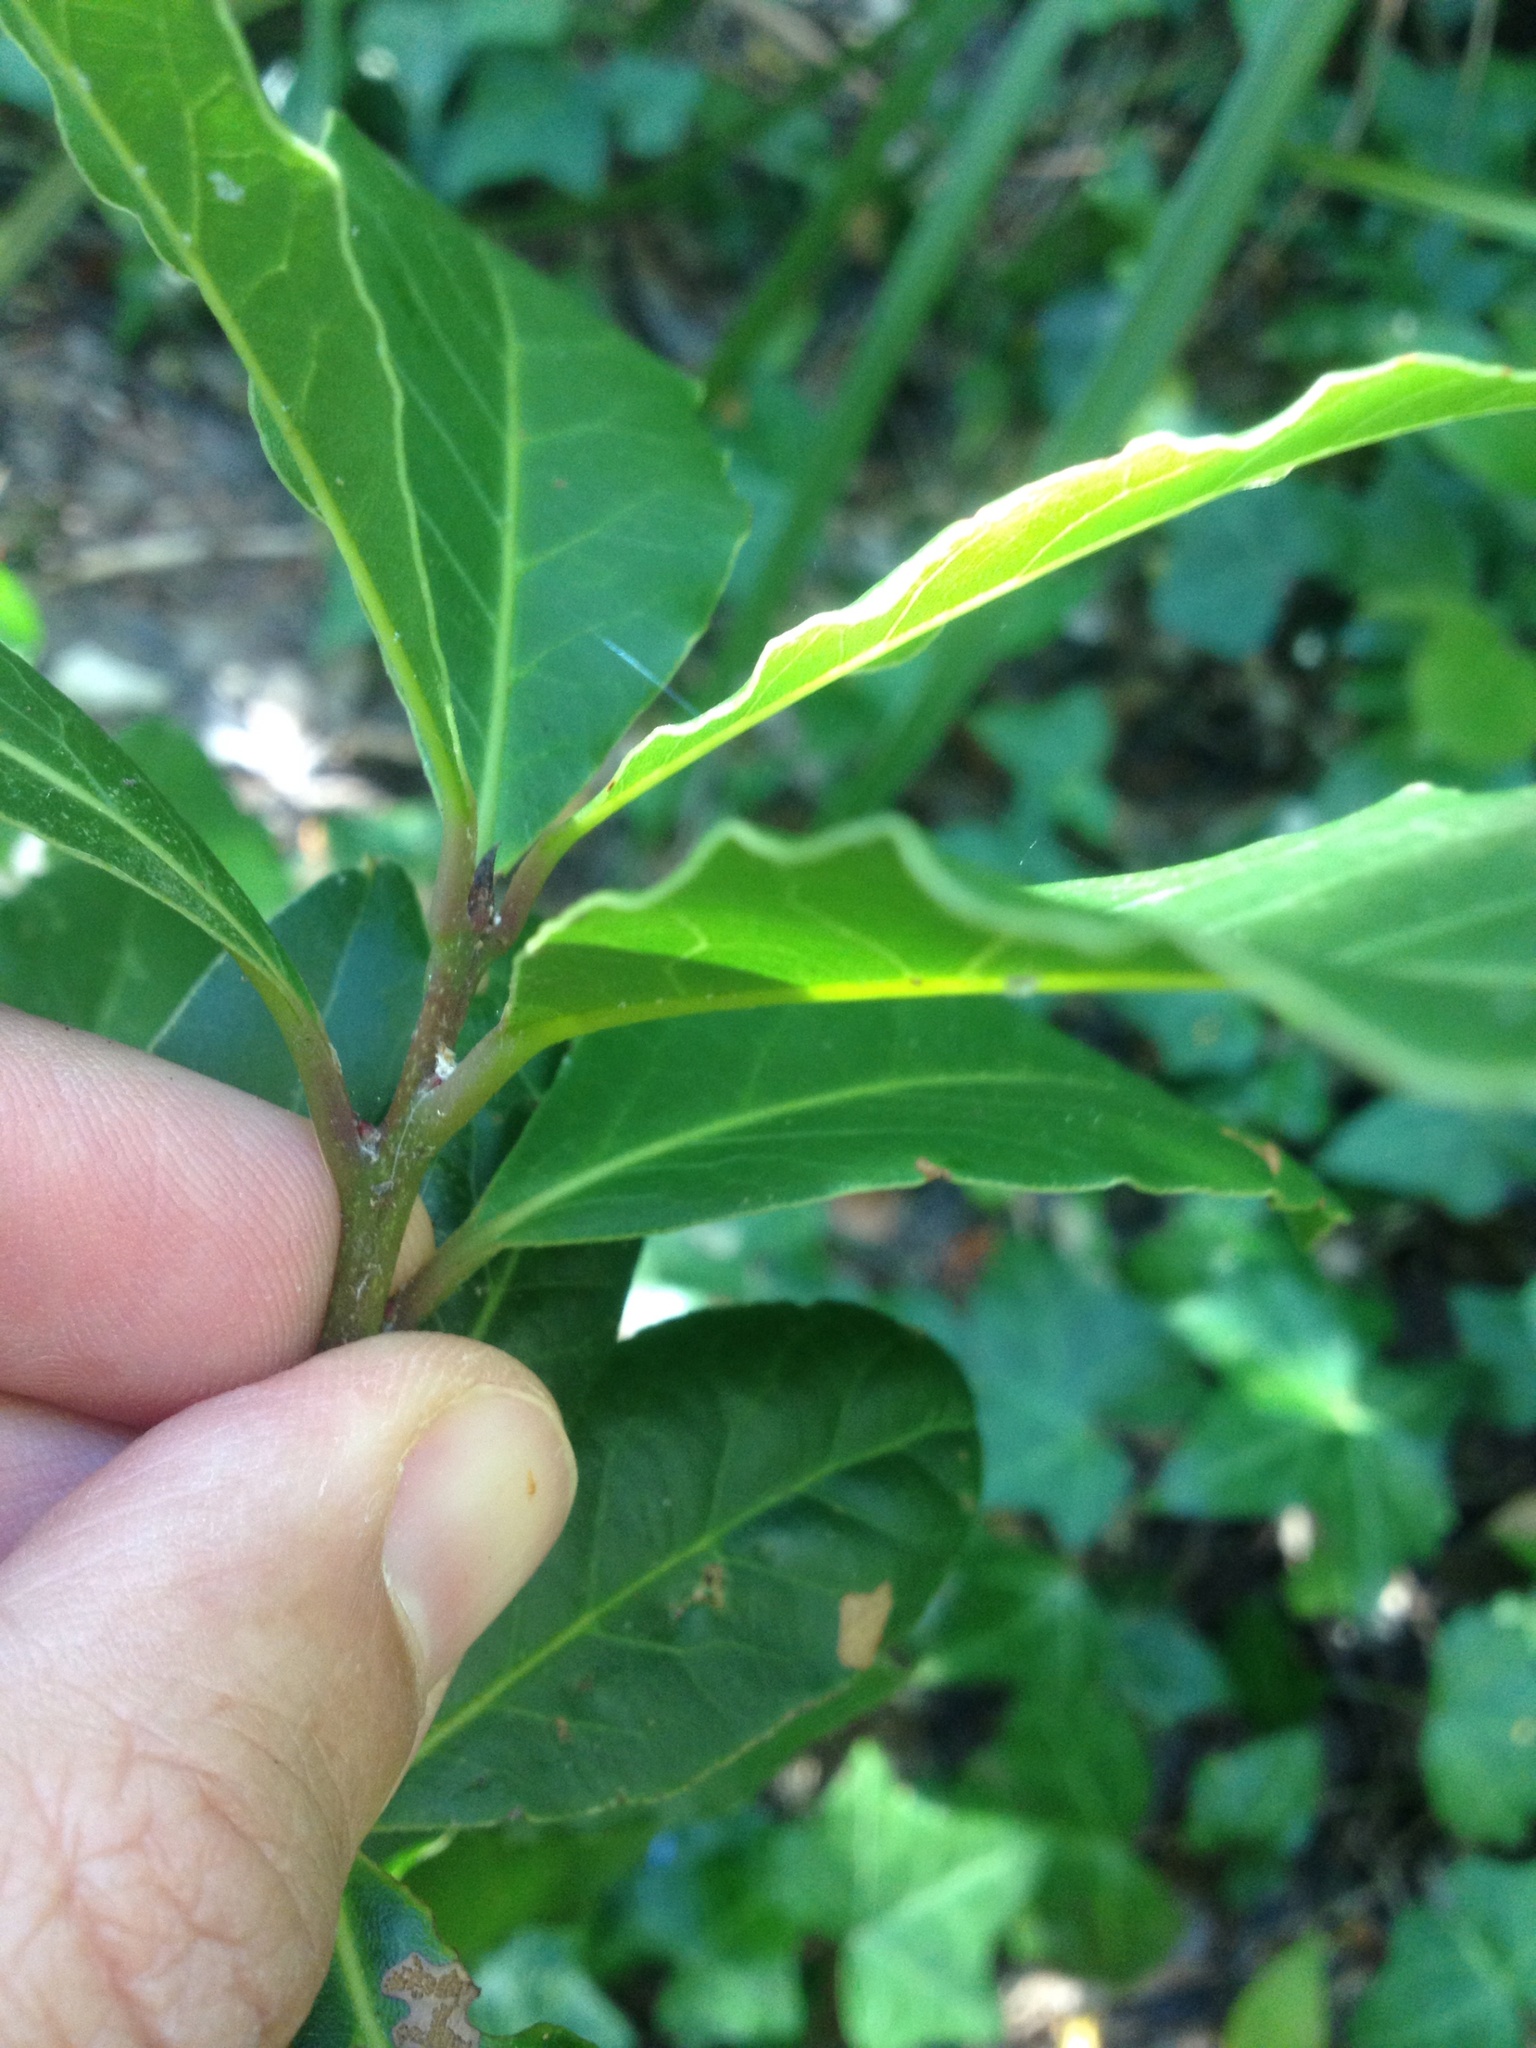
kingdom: Plantae
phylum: Tracheophyta
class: Magnoliopsida
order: Laurales
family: Lauraceae
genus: Laurus
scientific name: Laurus nobilis
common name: Bay
